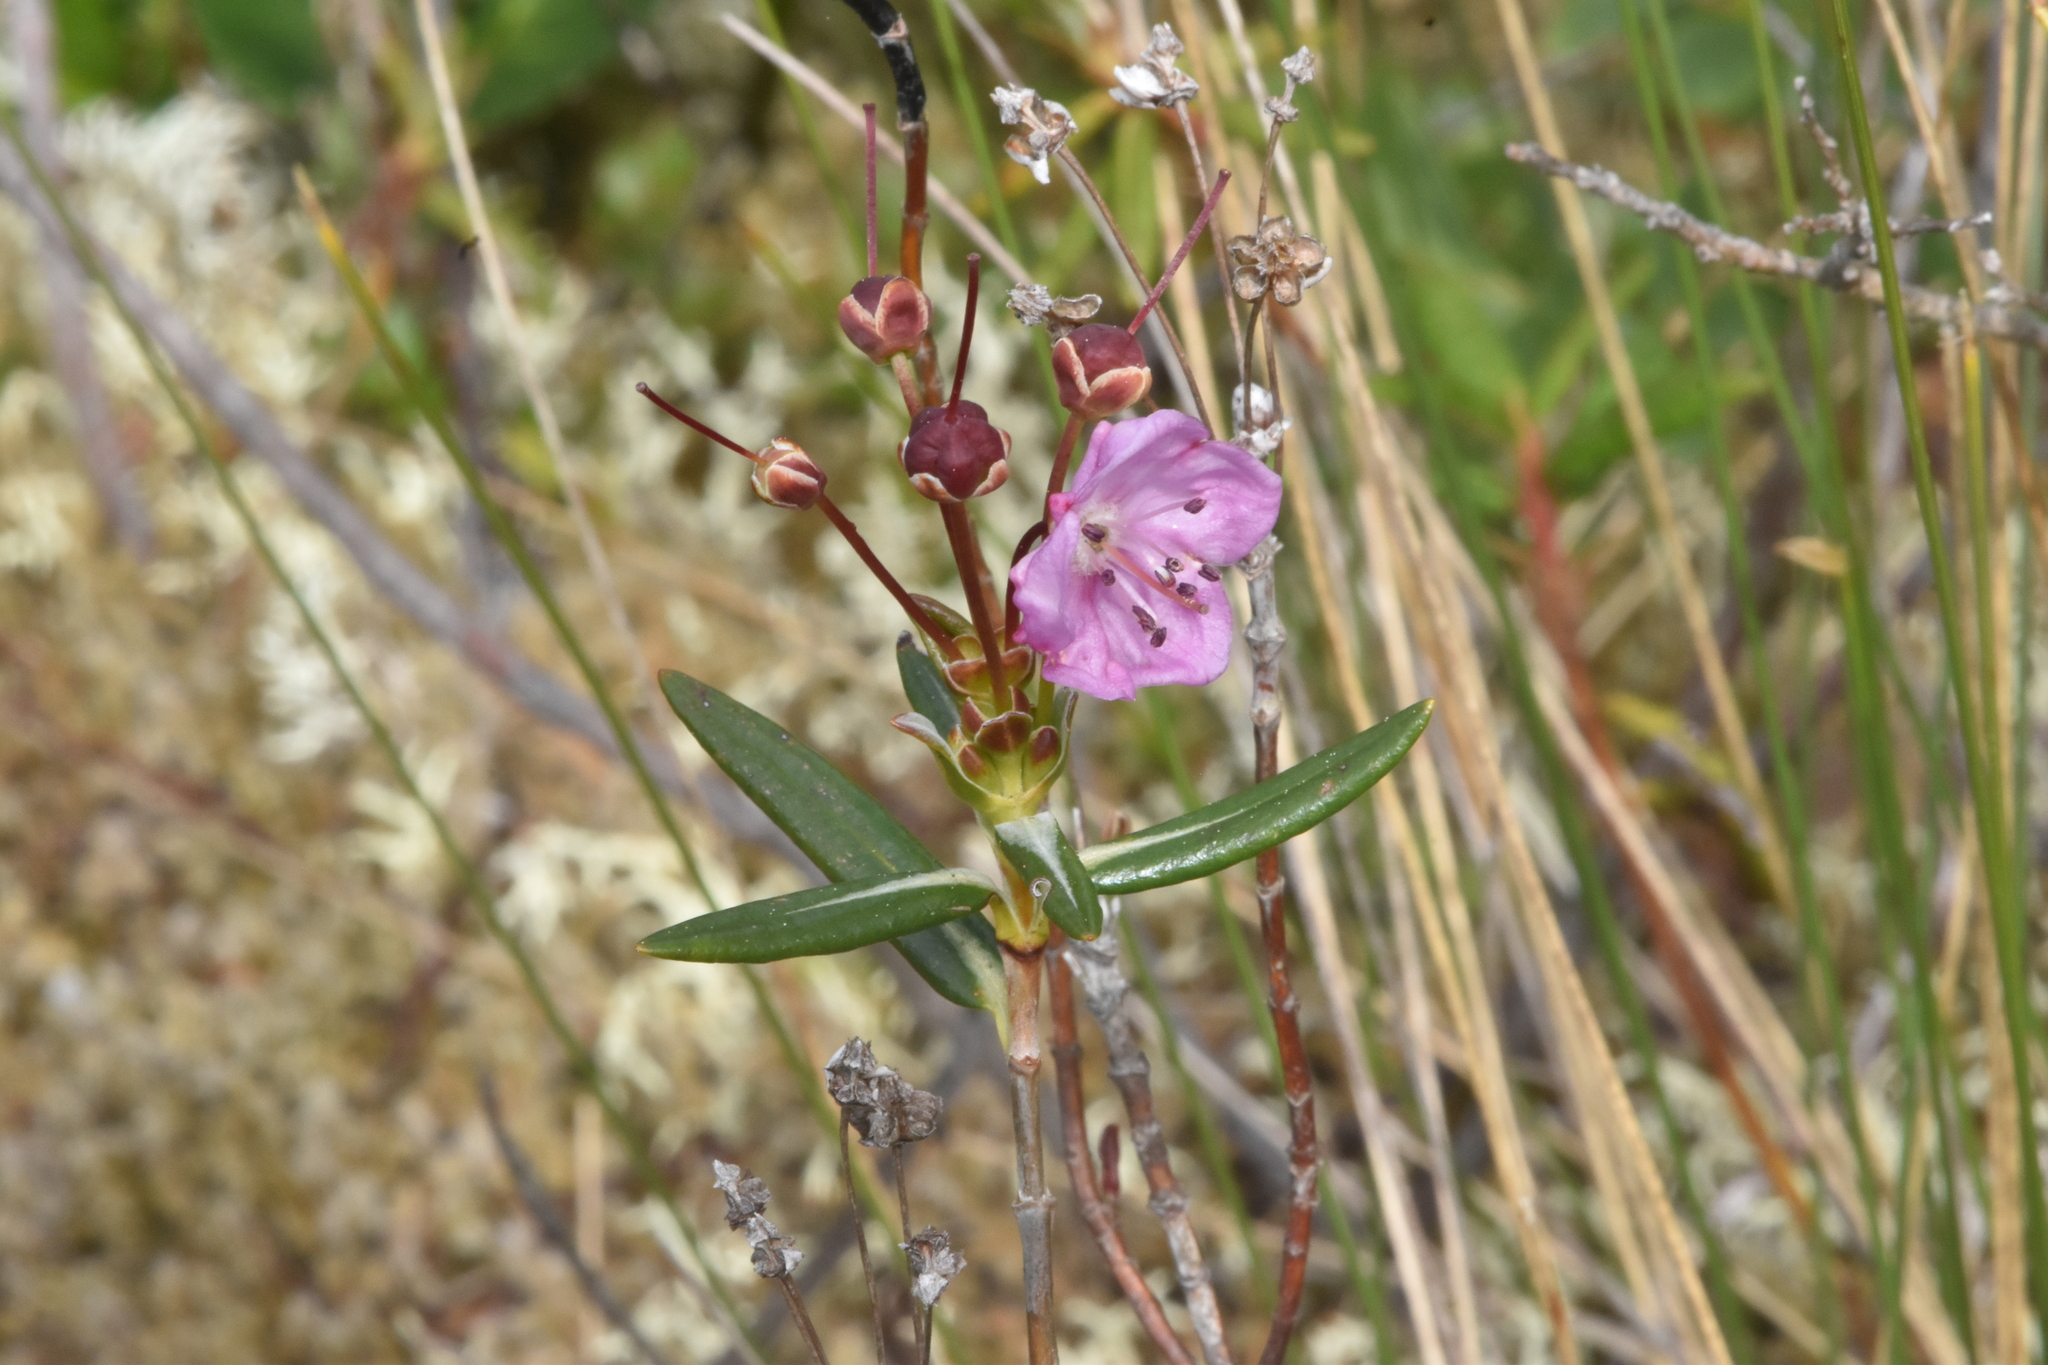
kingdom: Plantae
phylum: Tracheophyta
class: Magnoliopsida
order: Ericales
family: Ericaceae
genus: Kalmia
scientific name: Kalmia microphylla
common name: Alpine bog laurel
